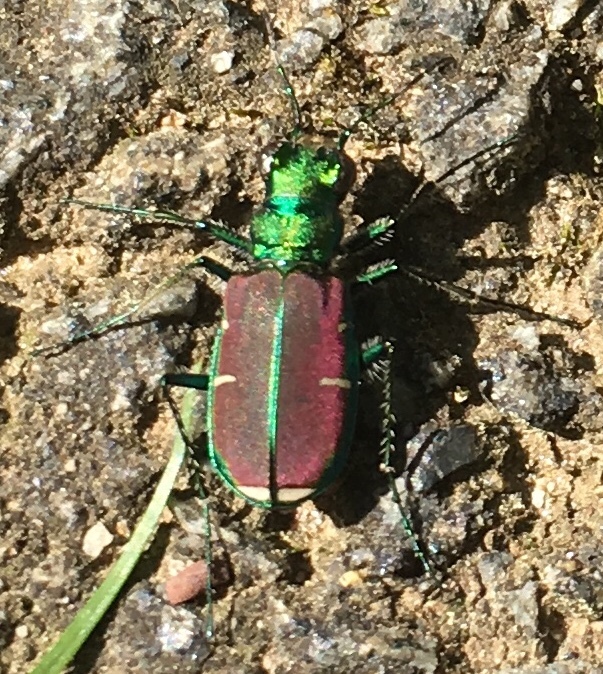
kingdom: Animalia
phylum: Arthropoda
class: Insecta
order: Coleoptera
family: Carabidae
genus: Cicindela
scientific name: Cicindela splendida
